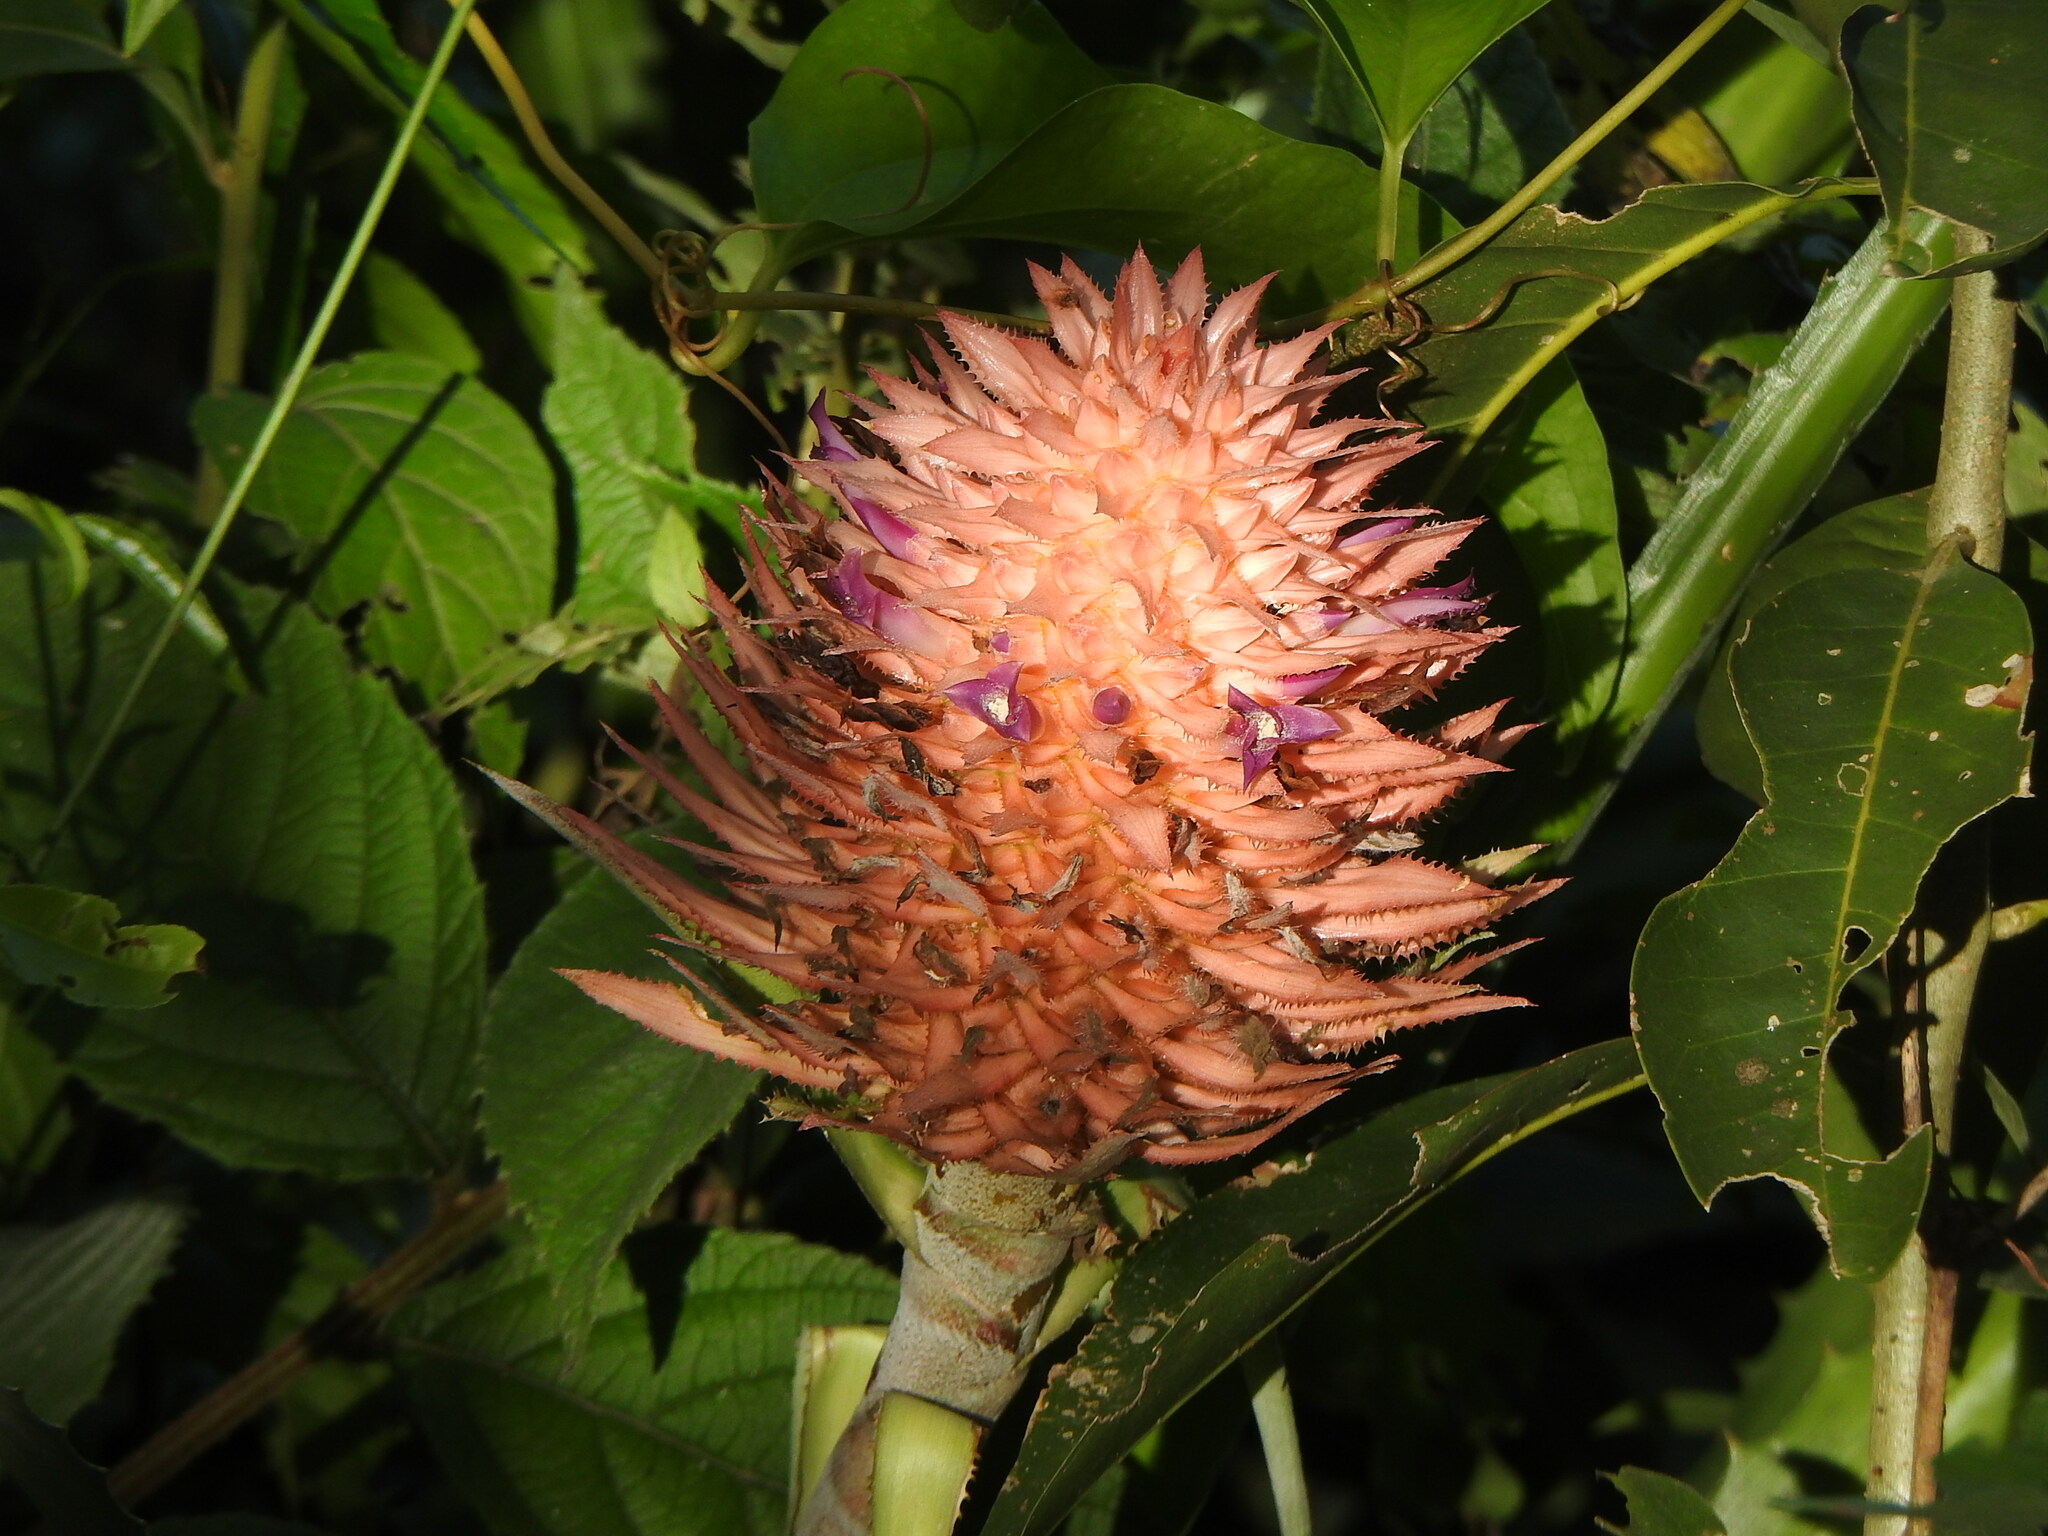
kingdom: Plantae
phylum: Tracheophyta
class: Liliopsida
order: Poales
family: Bromeliaceae
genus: Ananas
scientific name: Ananas macrodontes
